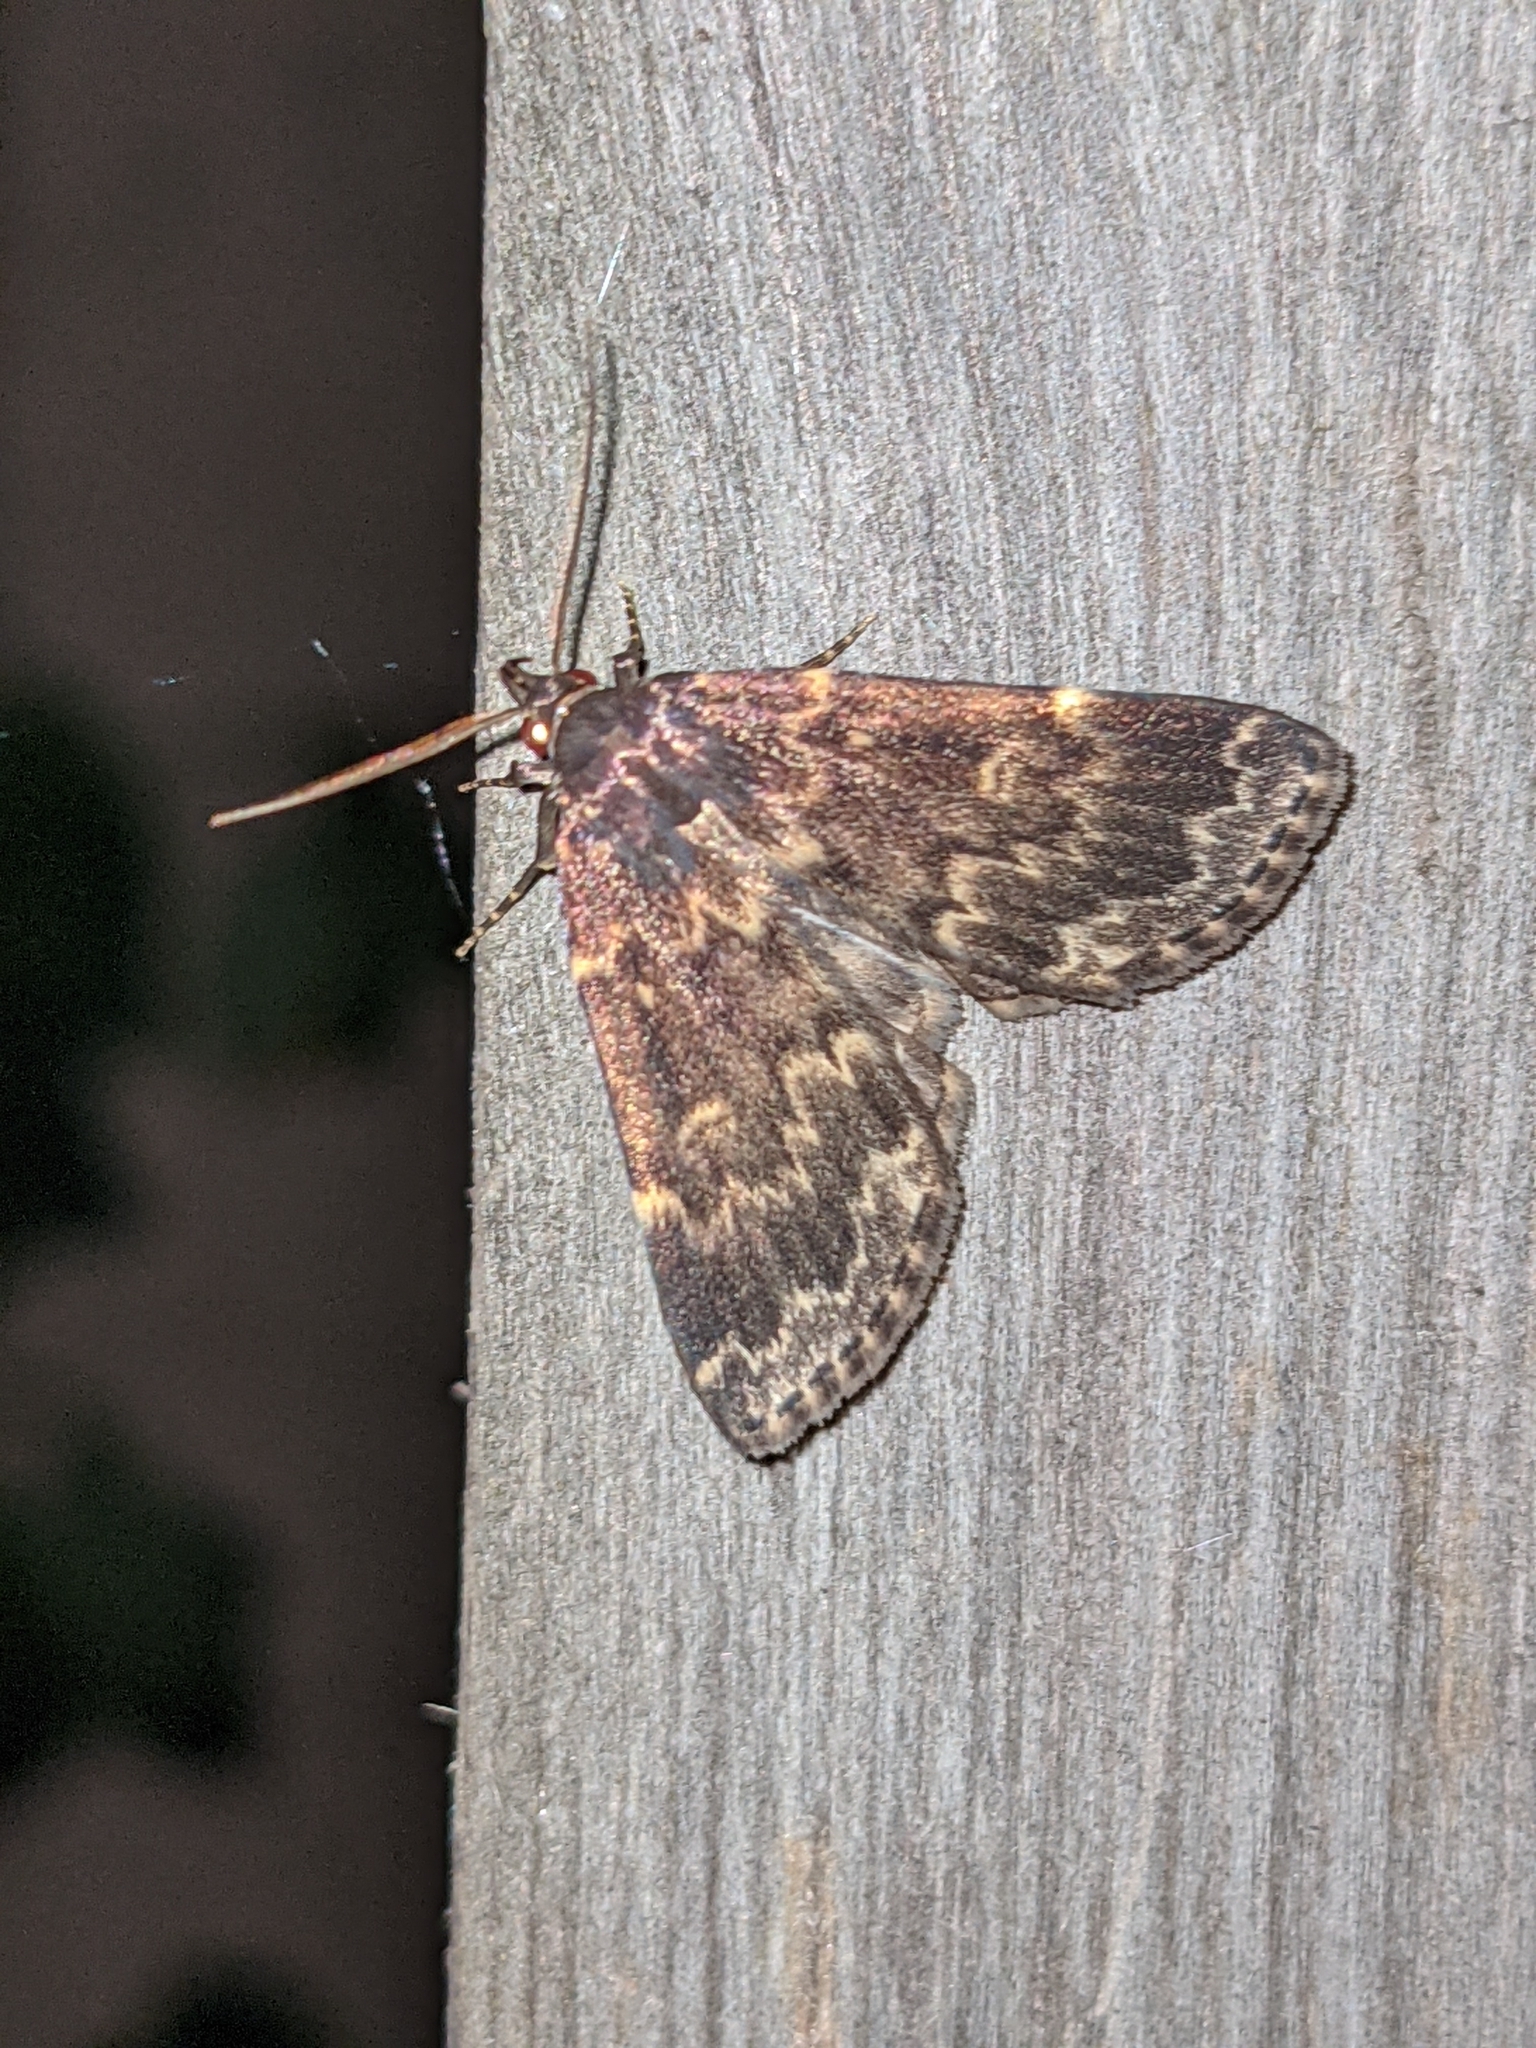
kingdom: Animalia
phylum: Arthropoda
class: Insecta
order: Lepidoptera
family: Erebidae
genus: Idia
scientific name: Idia lubricalis
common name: Twin-striped tabby
